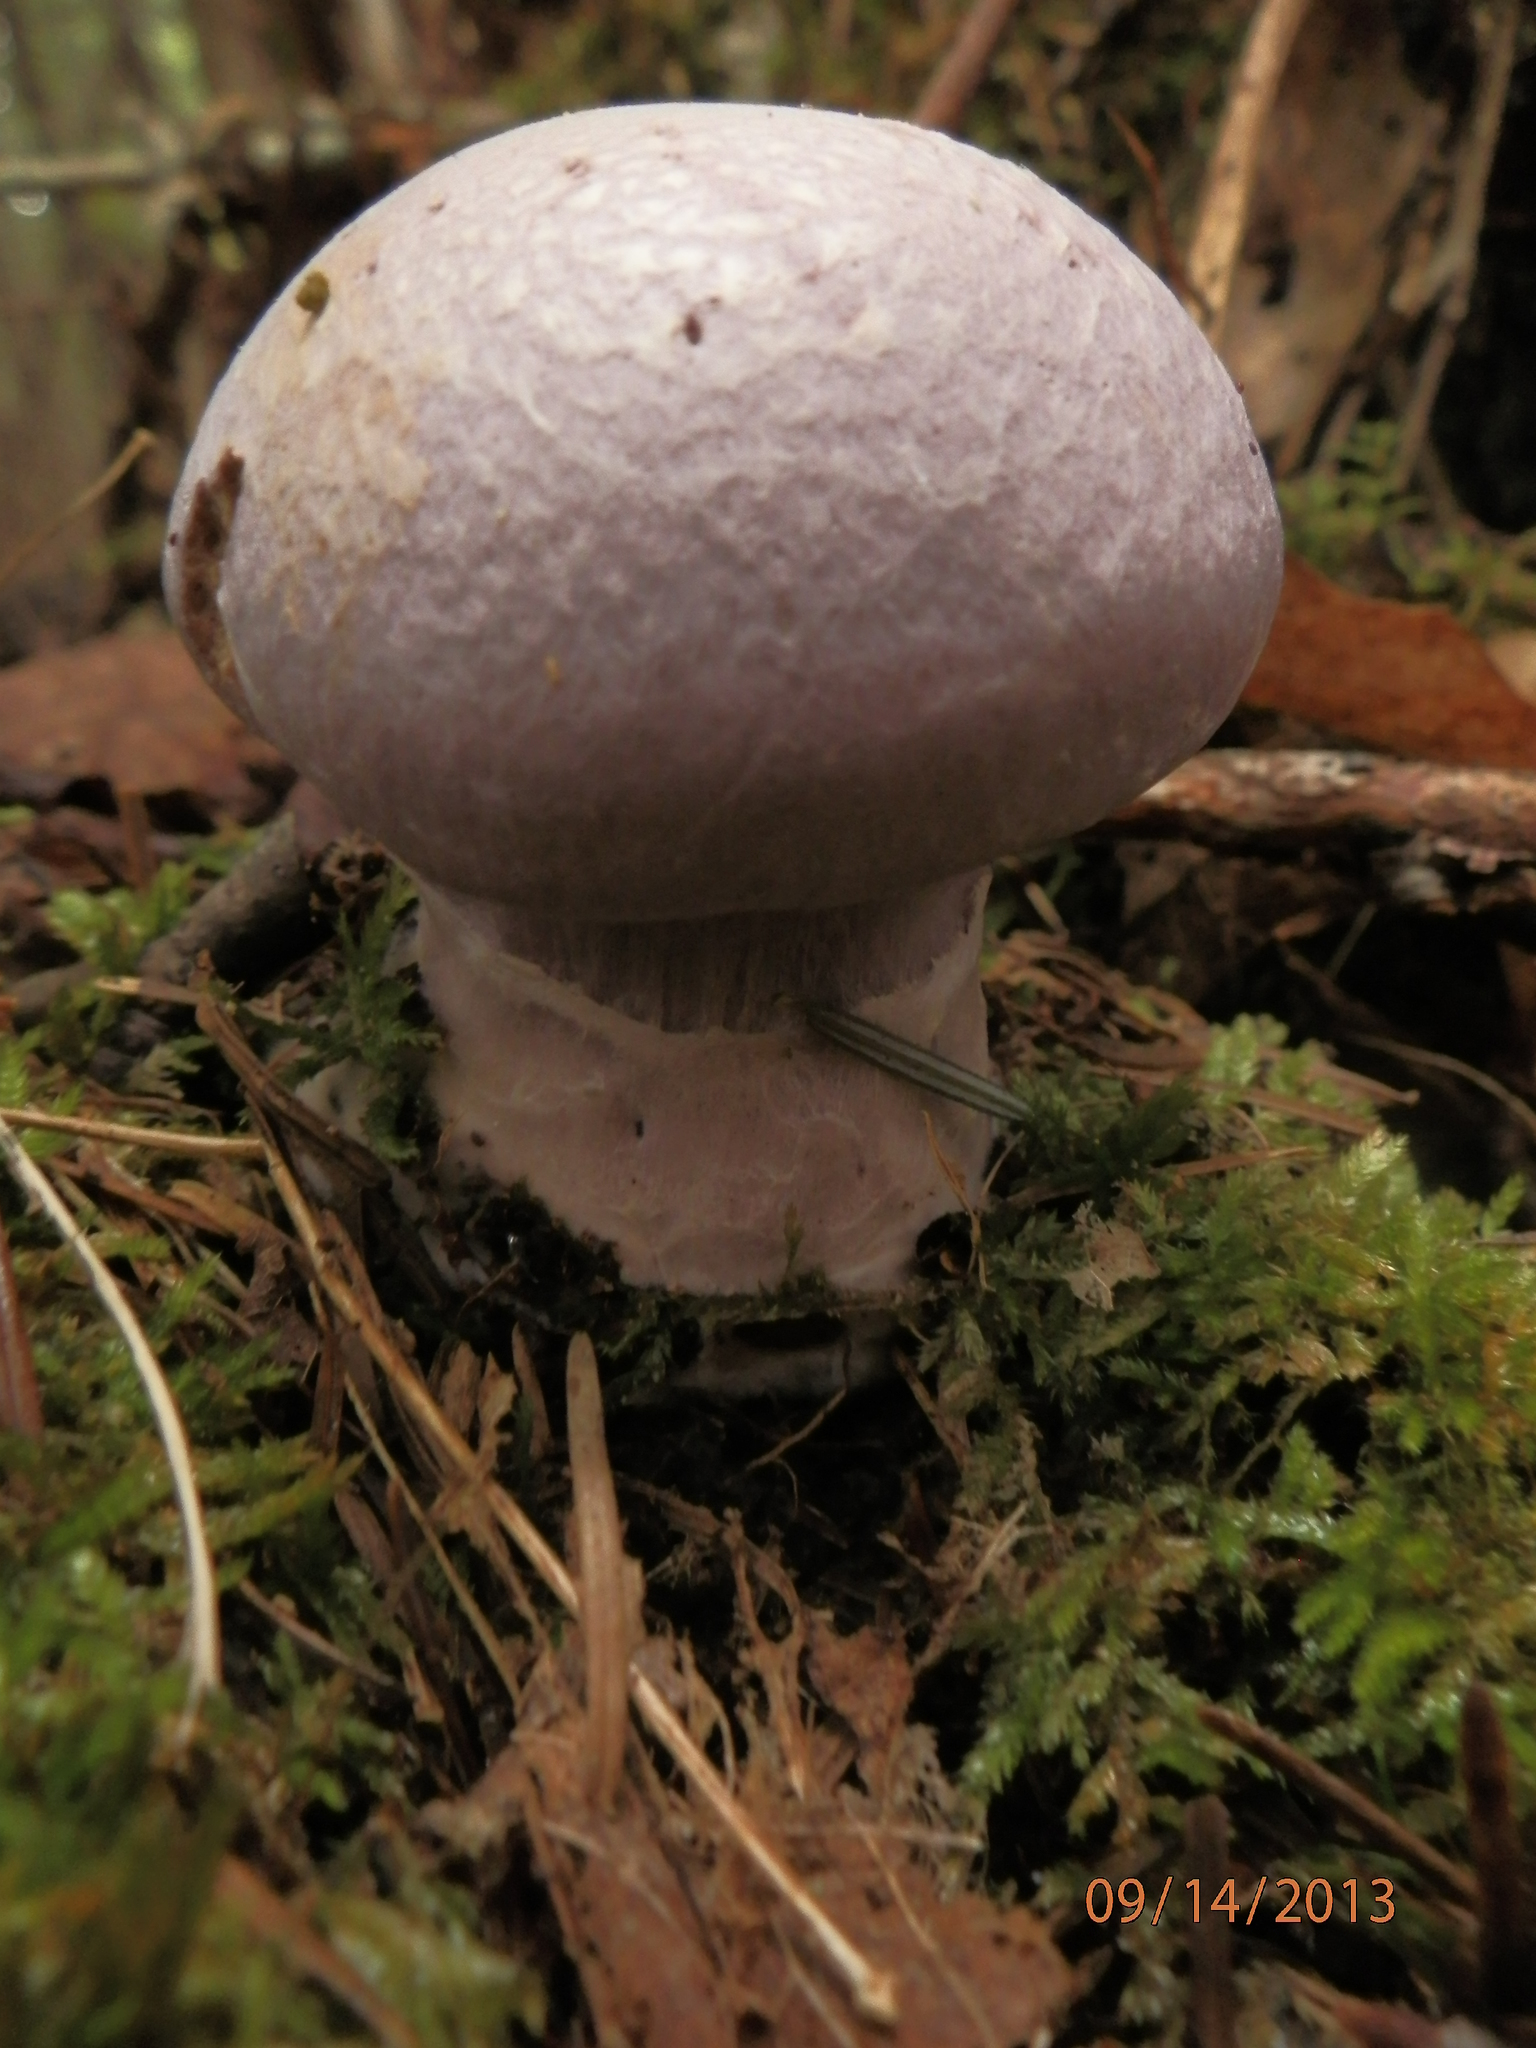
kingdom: Fungi
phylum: Basidiomycota
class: Agaricomycetes
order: Agaricales
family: Cortinariaceae
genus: Cortinarius
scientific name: Cortinarius traganus
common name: Gassy webcap
